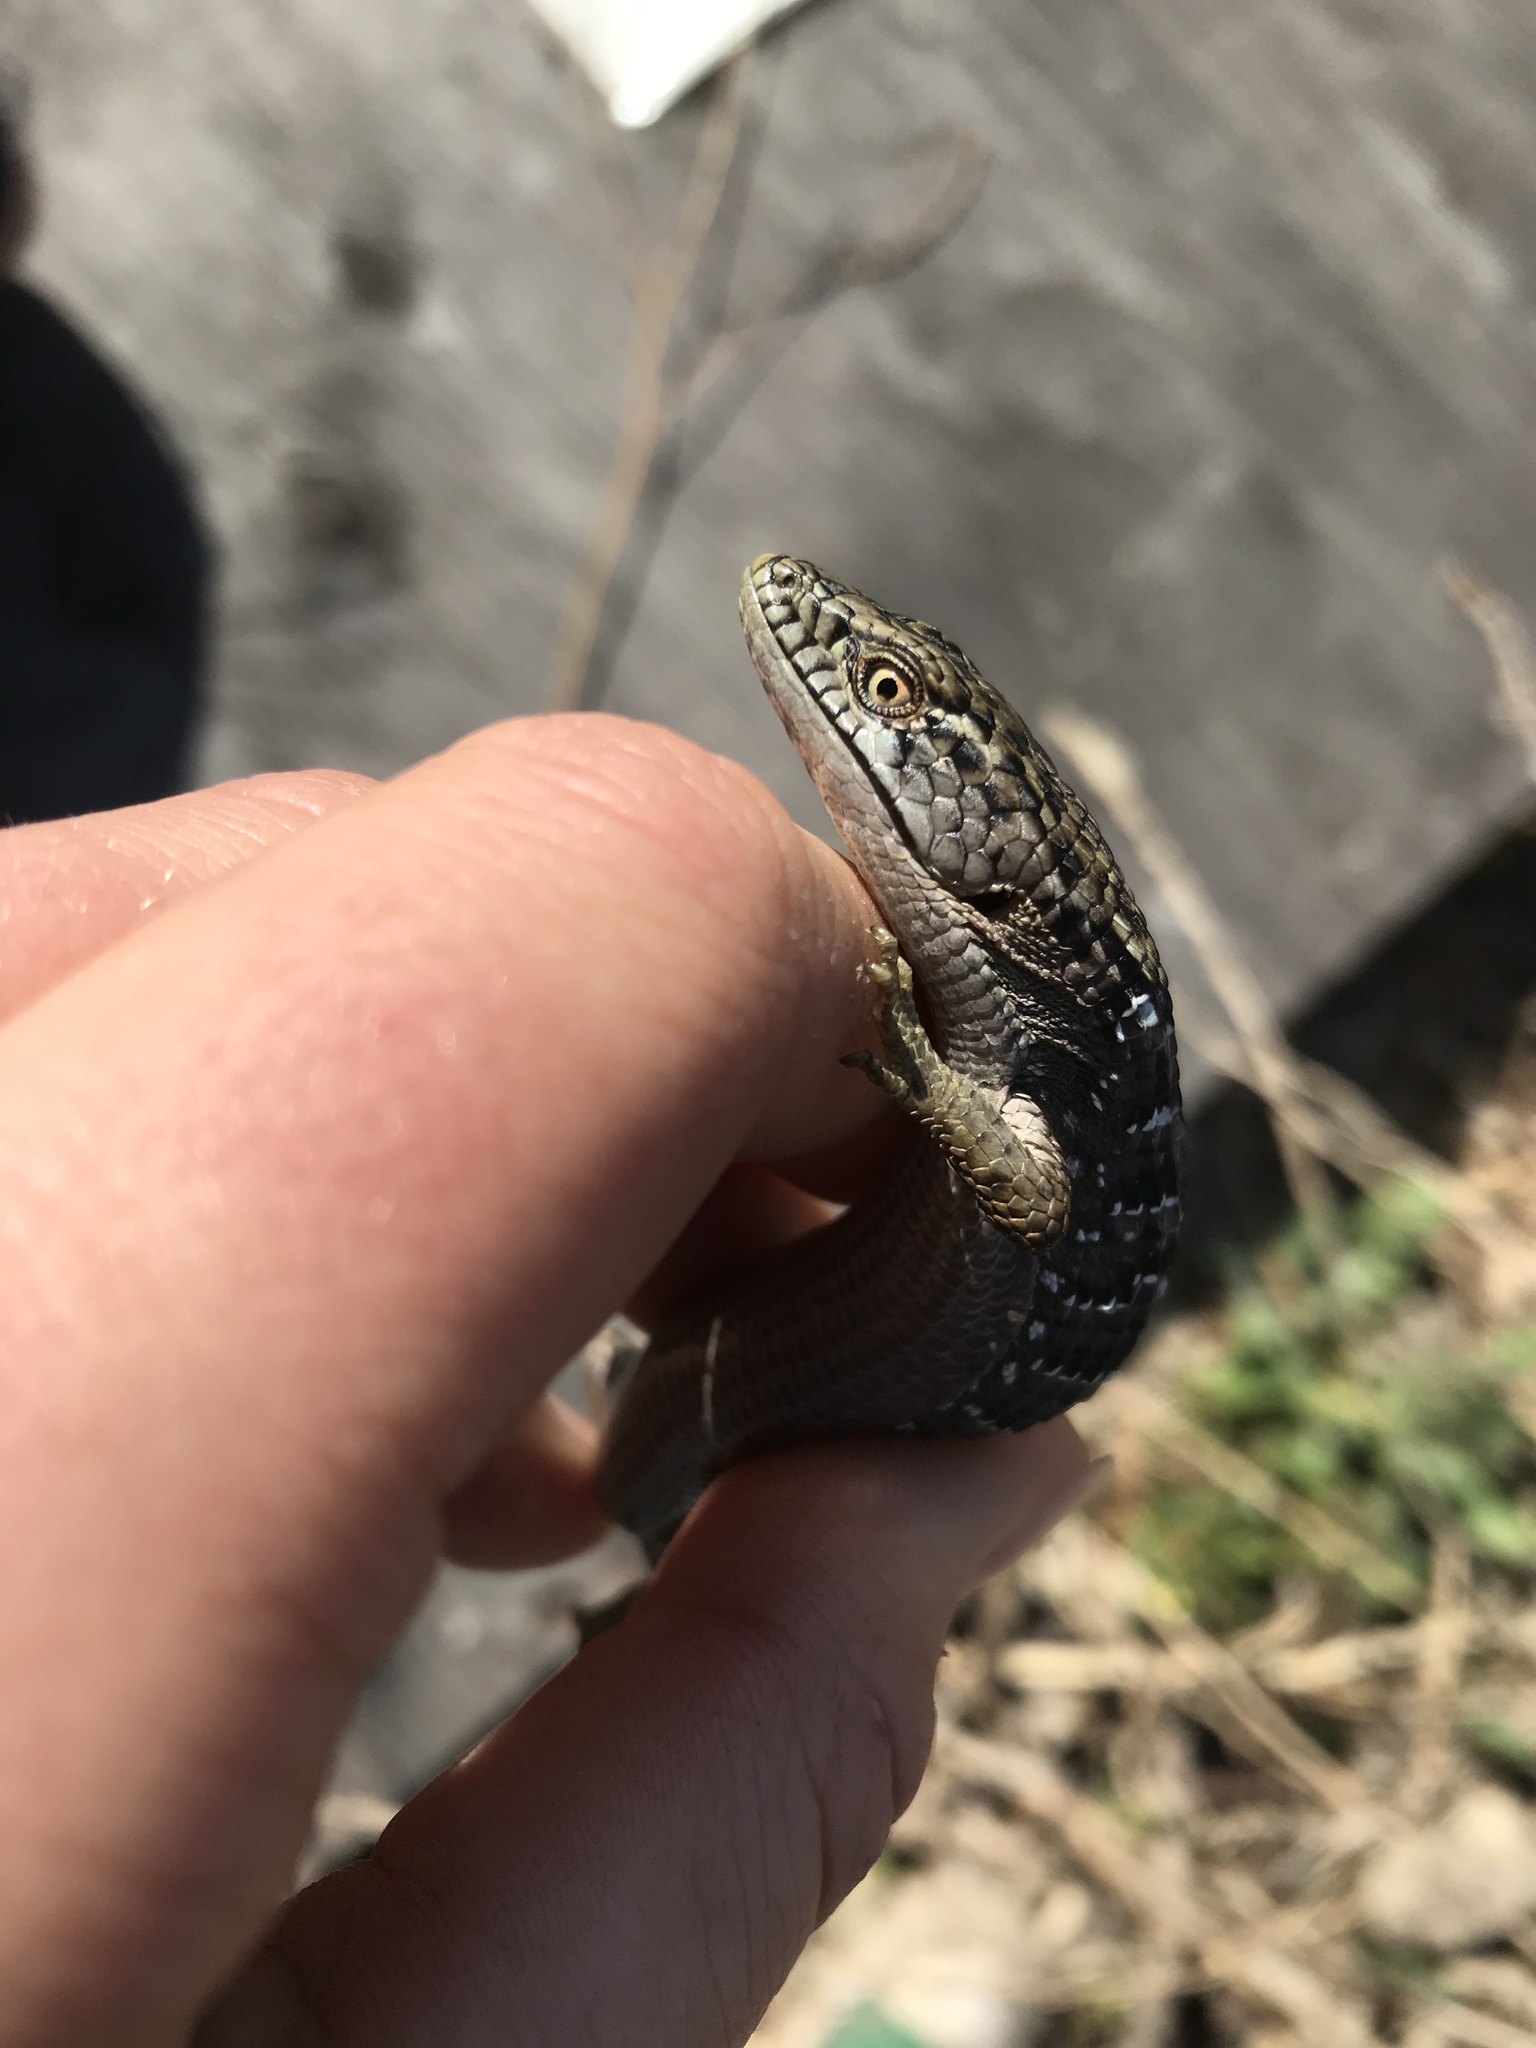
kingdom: Animalia
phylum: Chordata
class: Squamata
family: Anguidae
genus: Elgaria
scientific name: Elgaria multicarinata
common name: Southern alligator lizard
